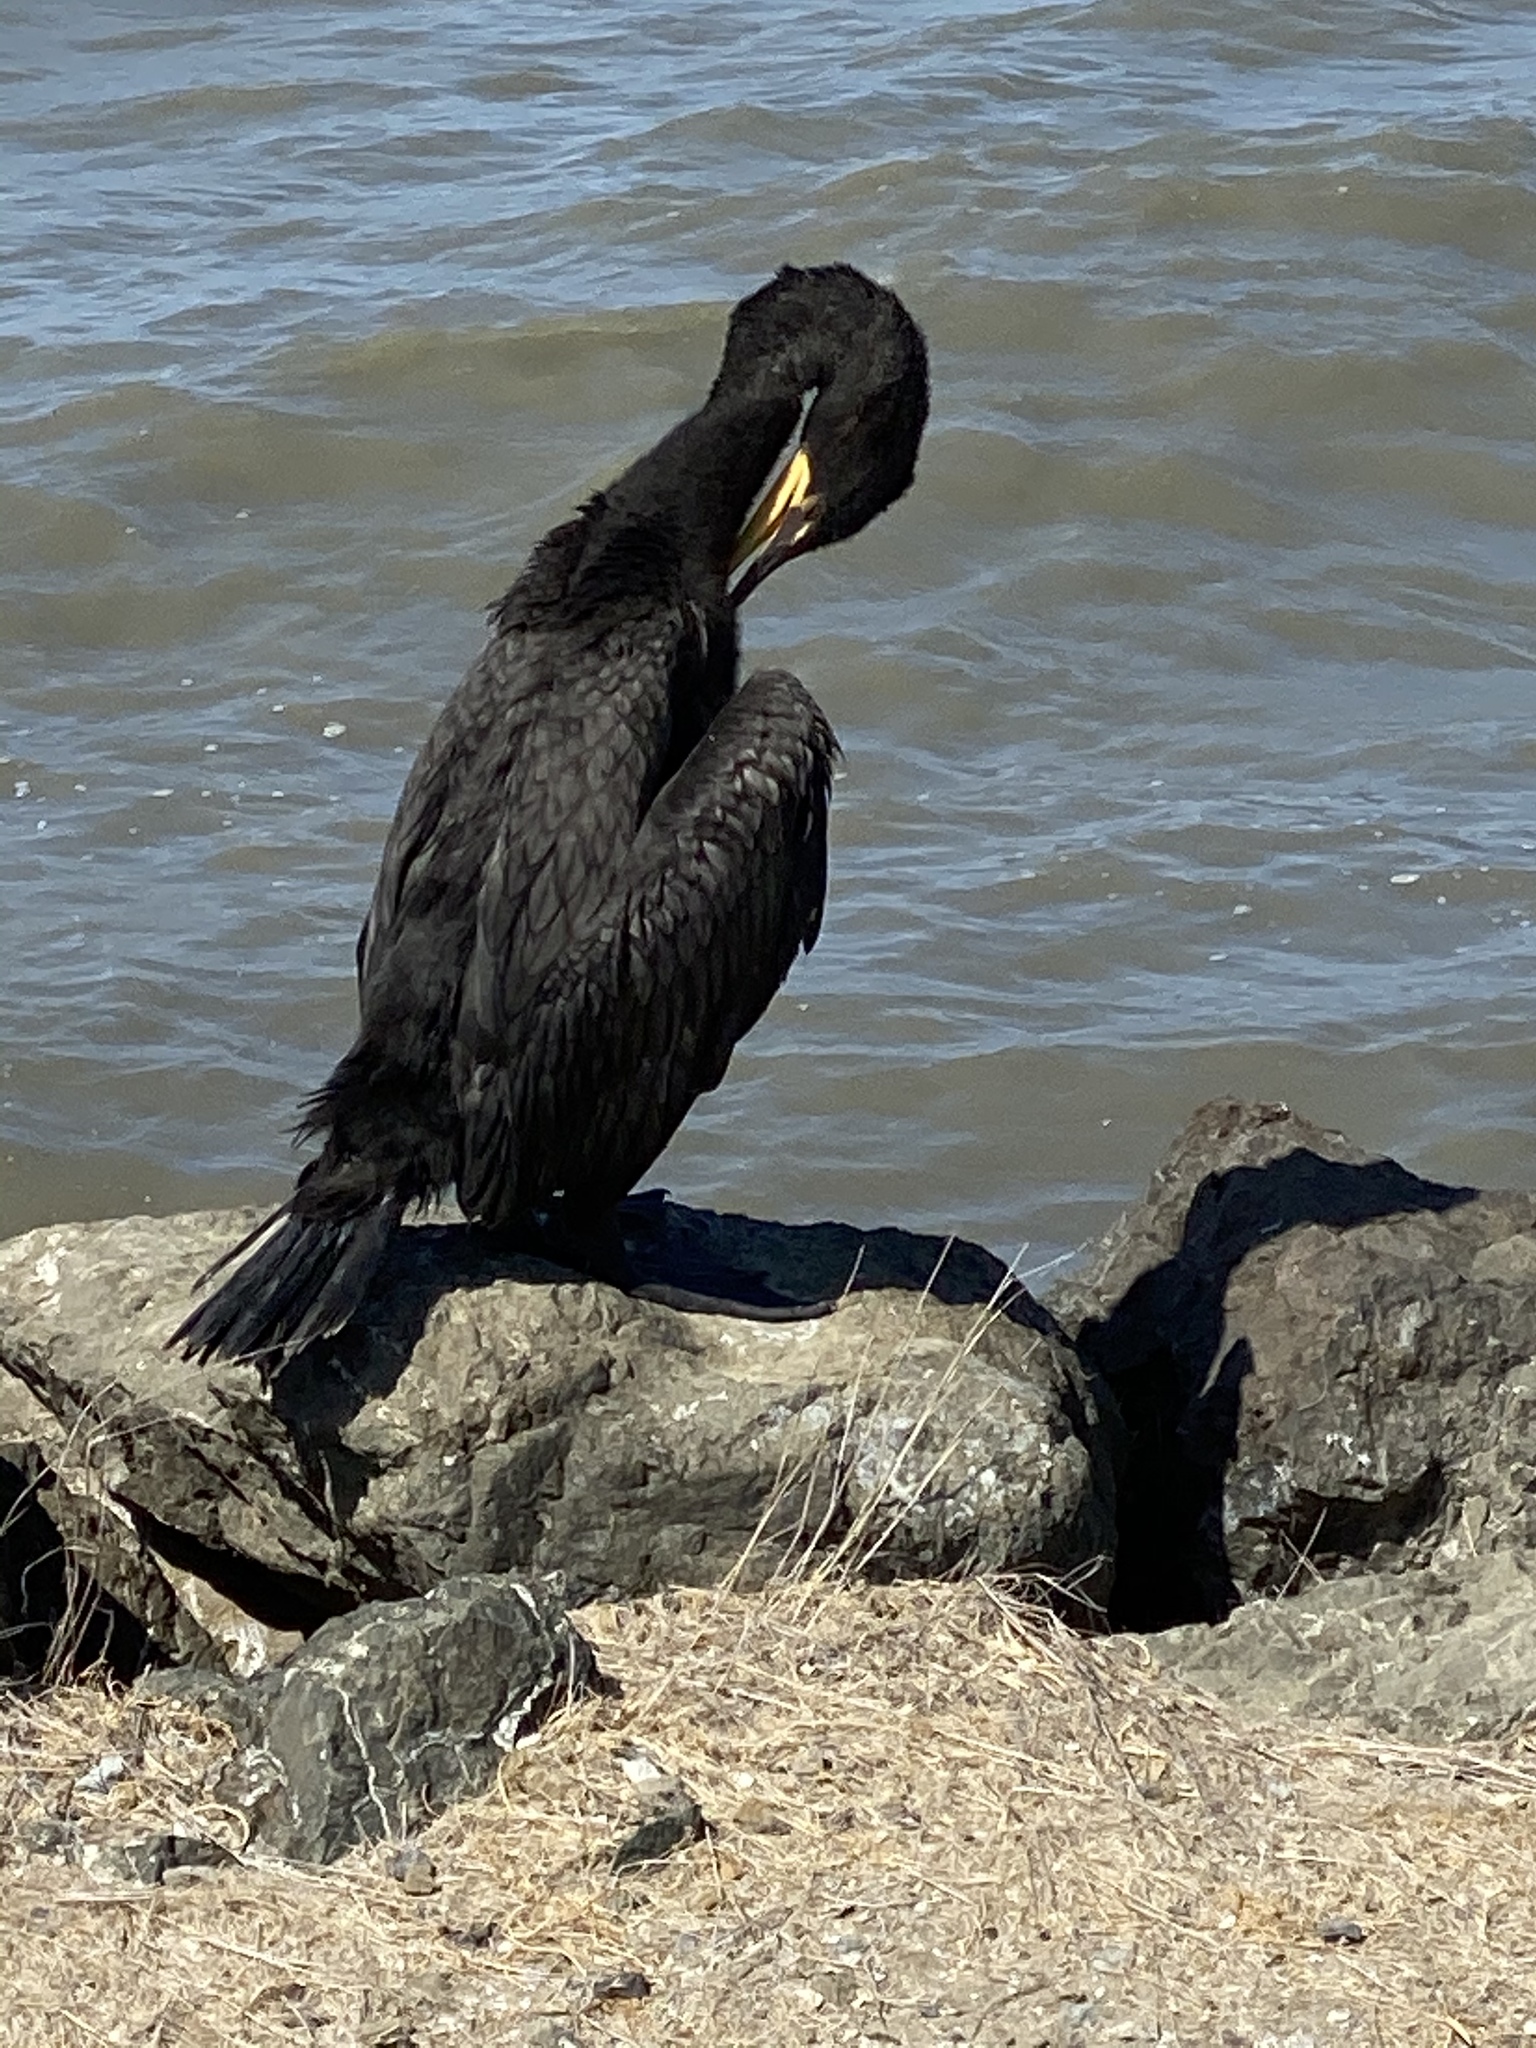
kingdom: Animalia
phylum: Chordata
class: Aves
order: Suliformes
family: Phalacrocoracidae
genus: Phalacrocorax
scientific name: Phalacrocorax auritus
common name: Double-crested cormorant
